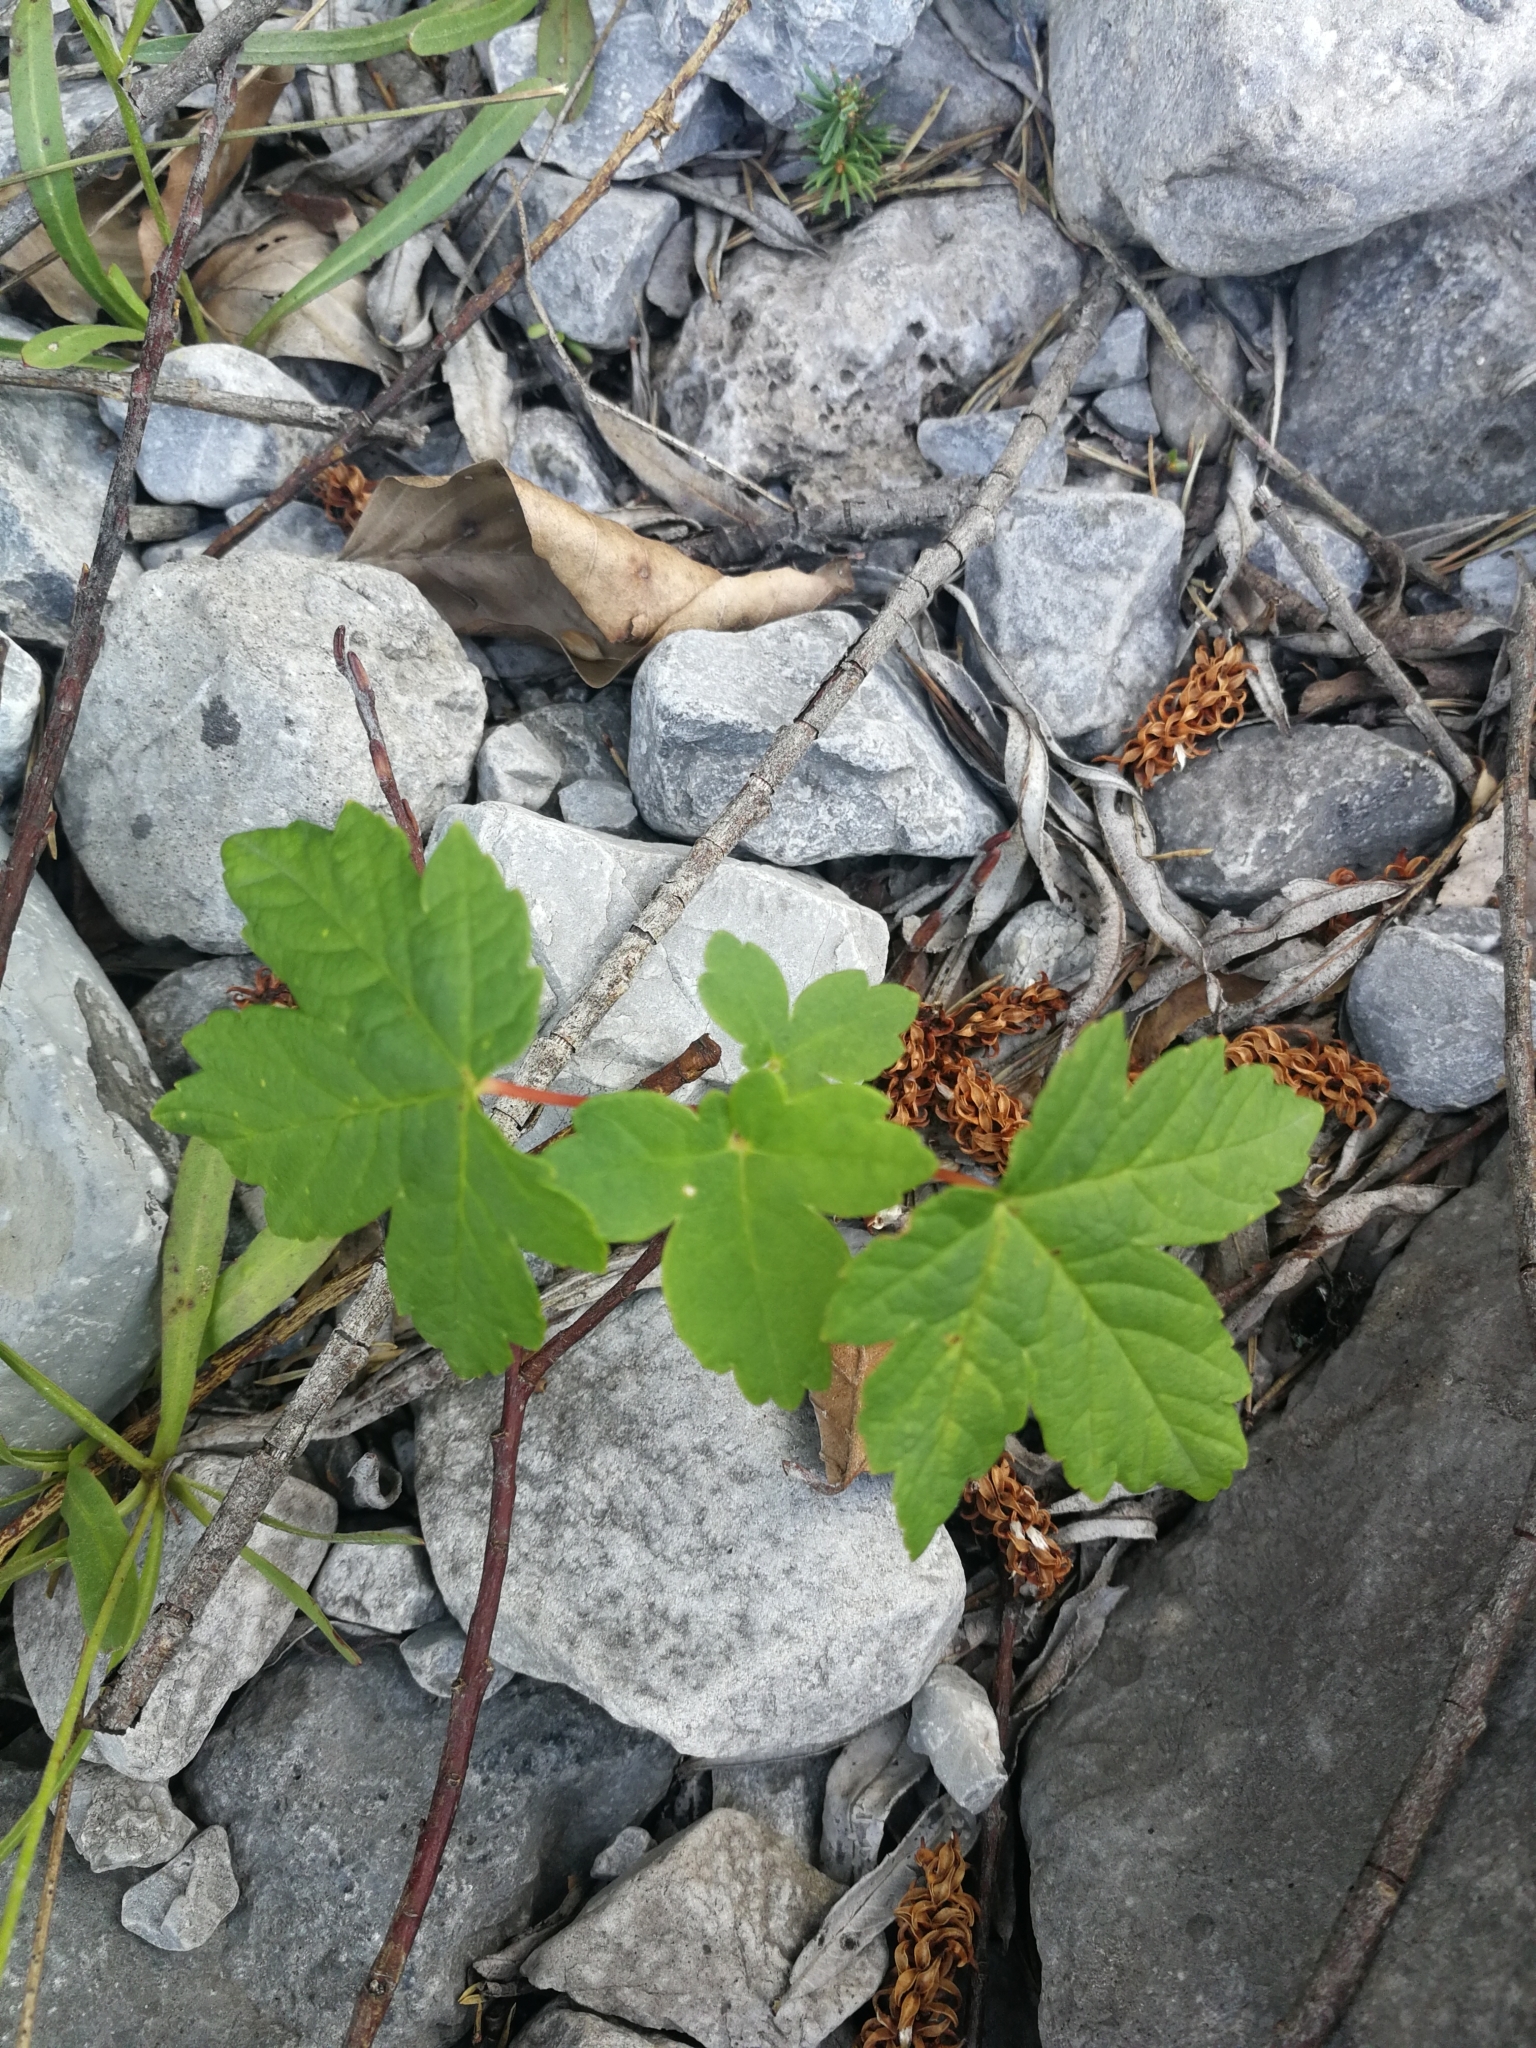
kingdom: Plantae
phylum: Tracheophyta
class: Magnoliopsida
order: Sapindales
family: Sapindaceae
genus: Acer
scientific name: Acer pseudoplatanus
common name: Sycamore
